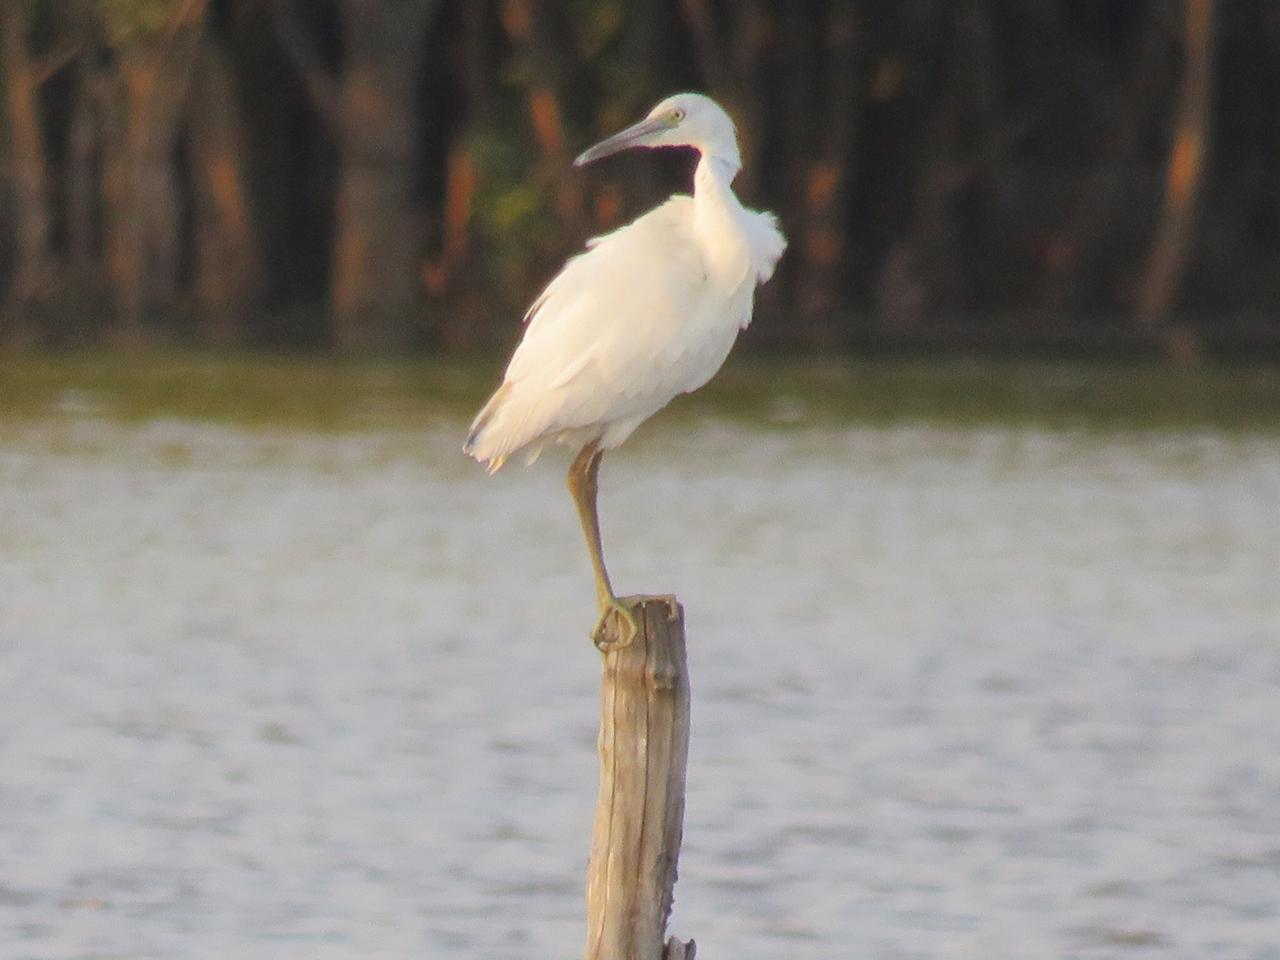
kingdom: Animalia
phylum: Chordata
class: Aves
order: Pelecaniformes
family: Ardeidae
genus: Egretta
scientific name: Egretta caerulea
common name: Little blue heron
